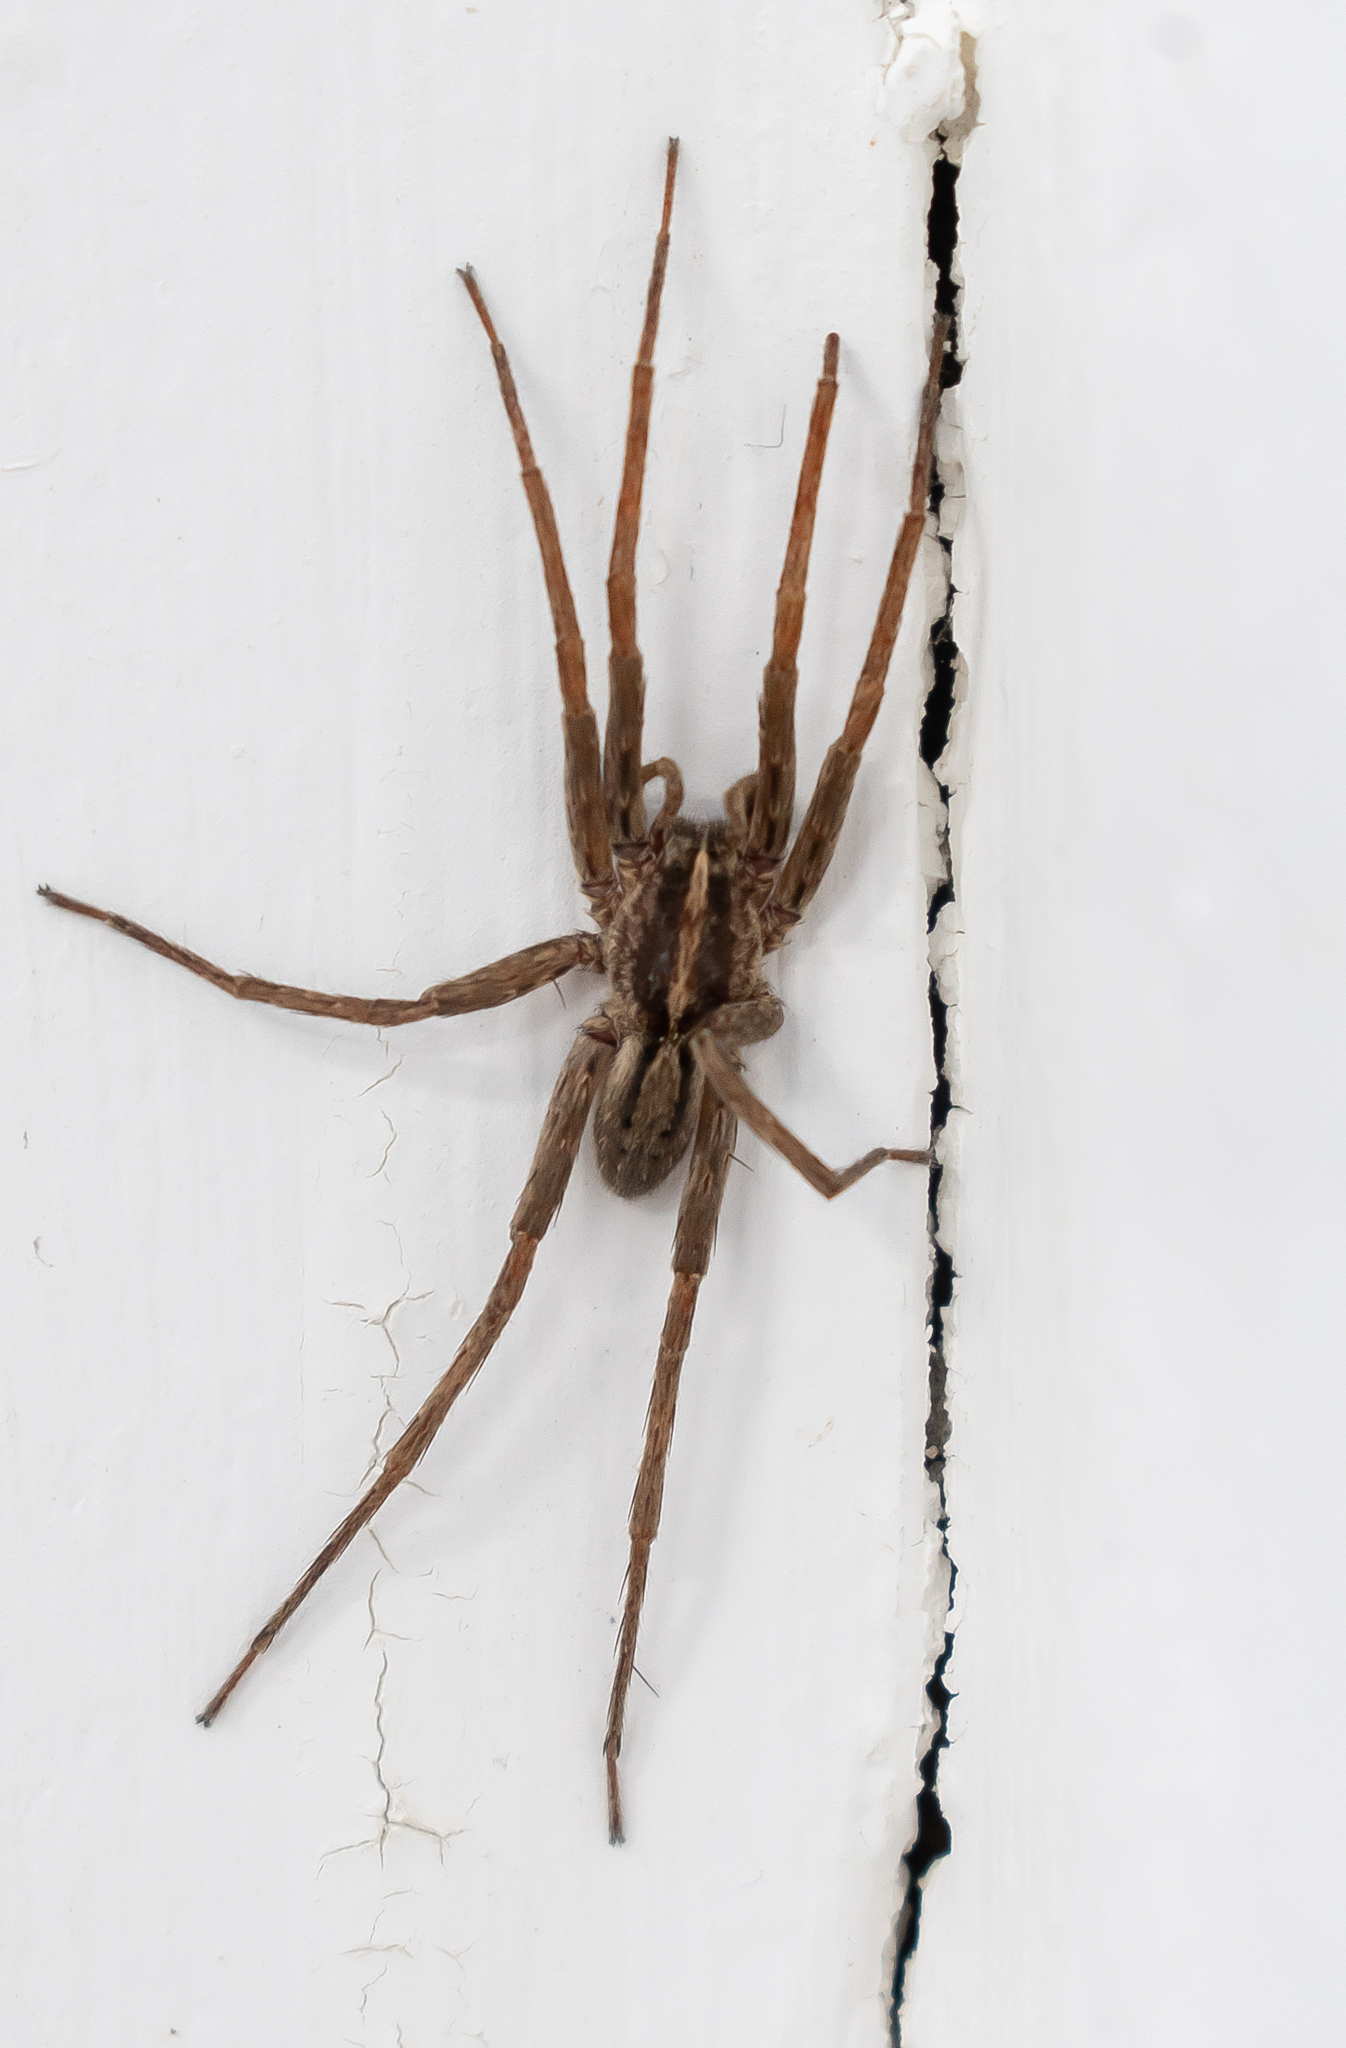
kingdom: Animalia
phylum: Arthropoda
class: Arachnida
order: Araneae
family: Ctenidae
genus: Parabatinga
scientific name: Parabatinga brevipes
